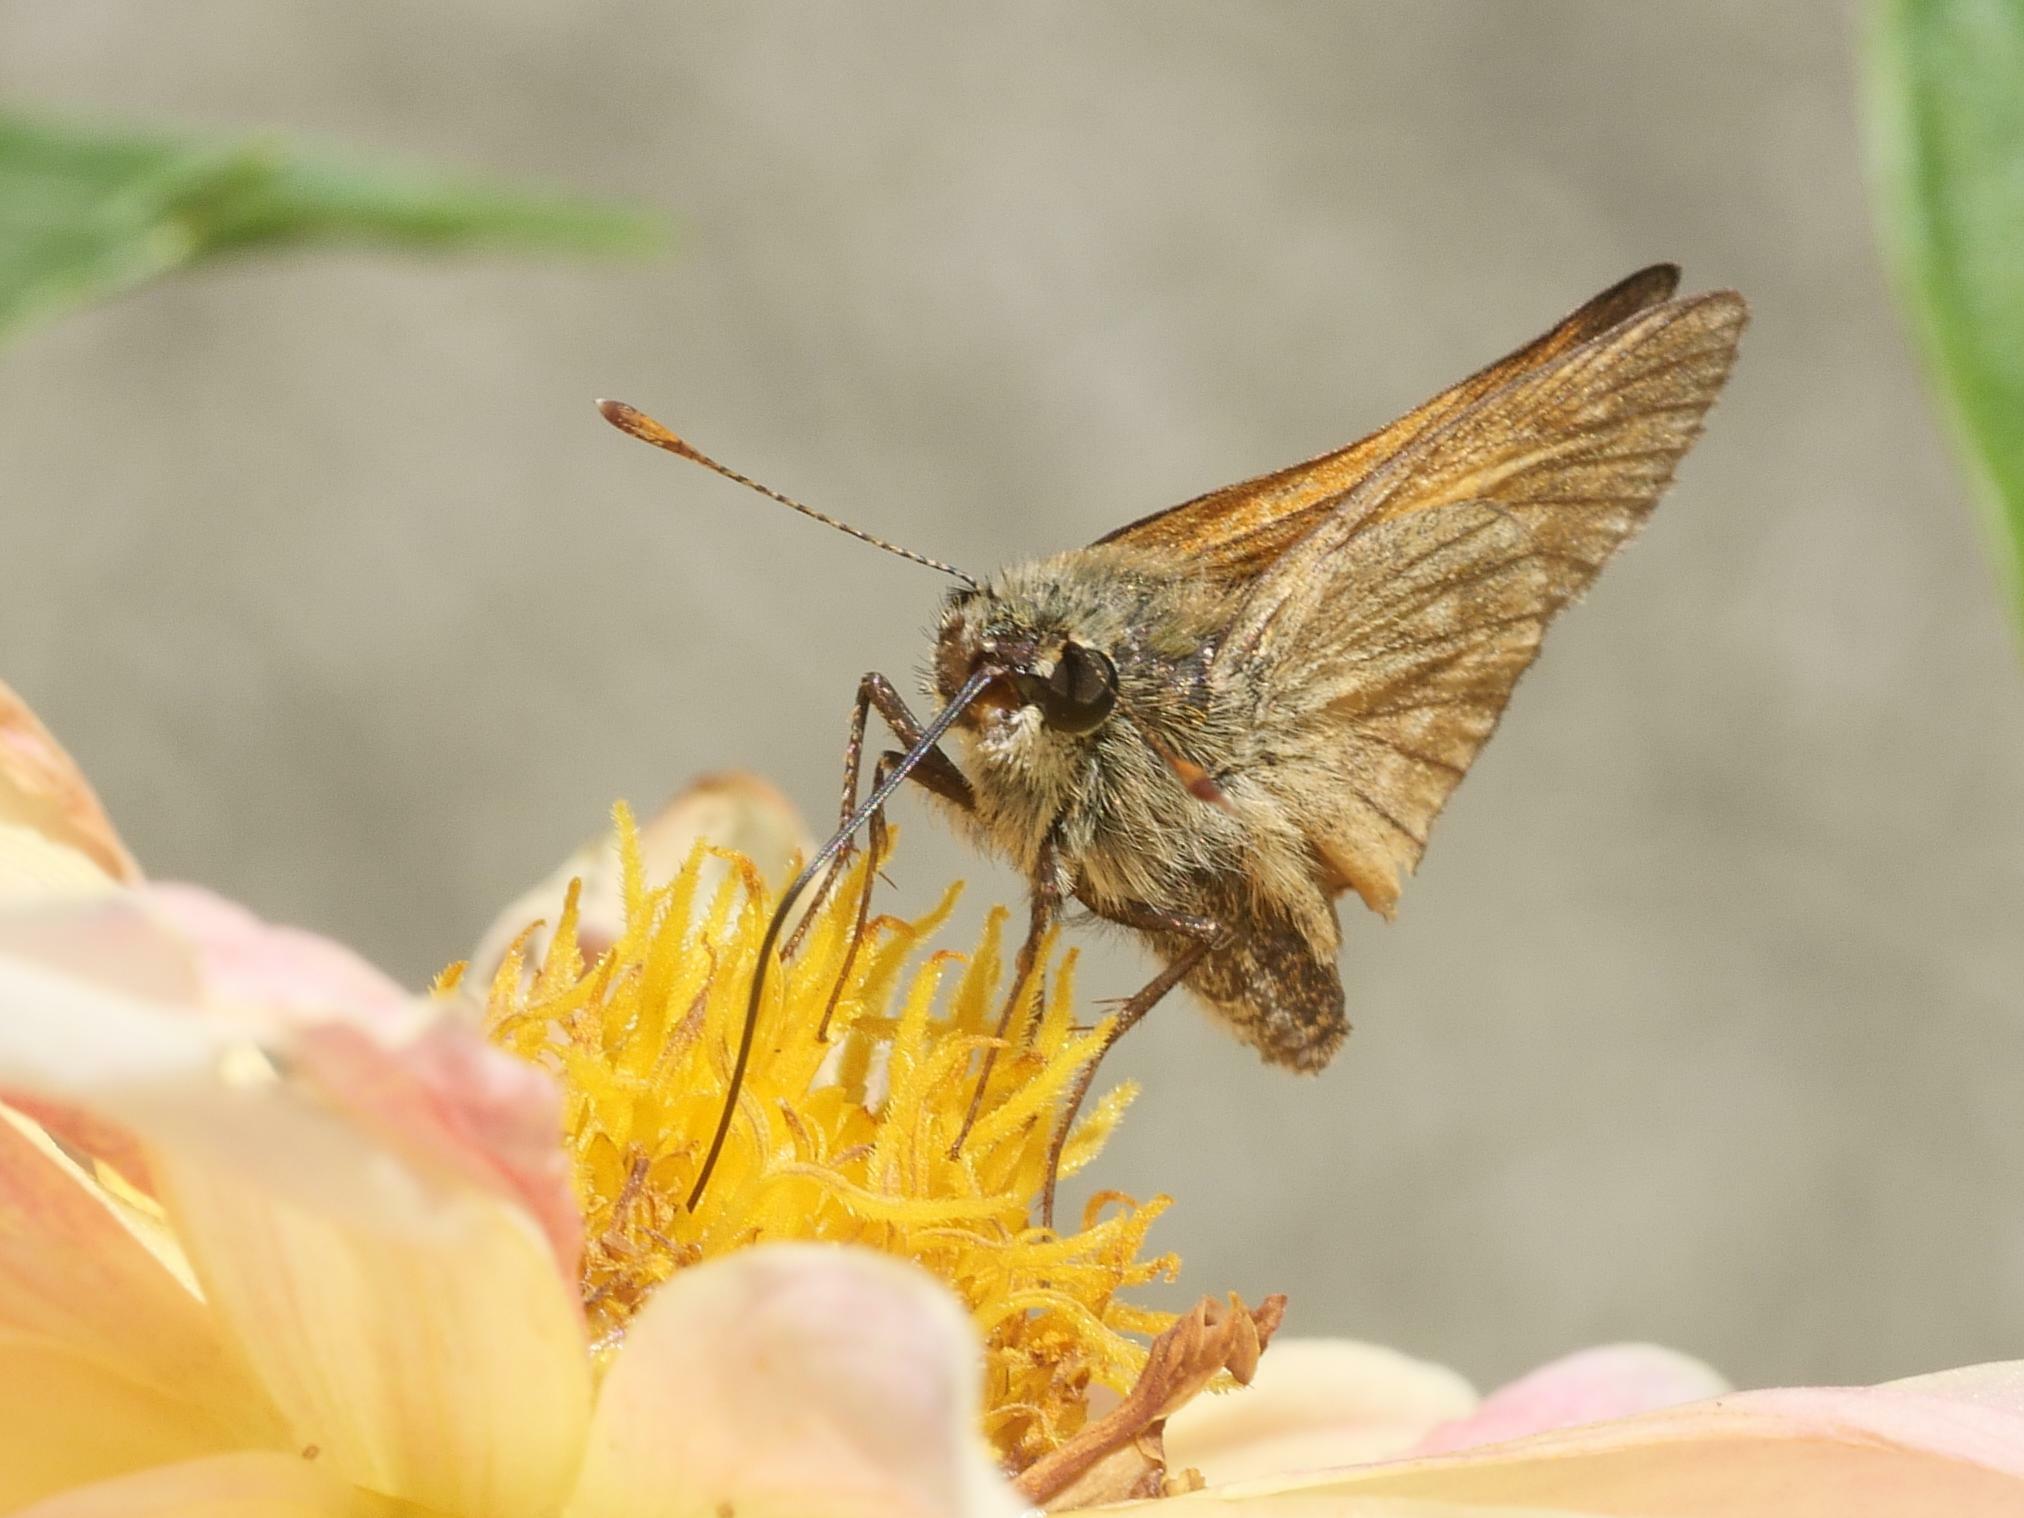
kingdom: Animalia
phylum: Arthropoda
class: Insecta
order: Lepidoptera
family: Hesperiidae
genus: Ochlodes
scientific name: Ochlodes venata
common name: Large skipper
